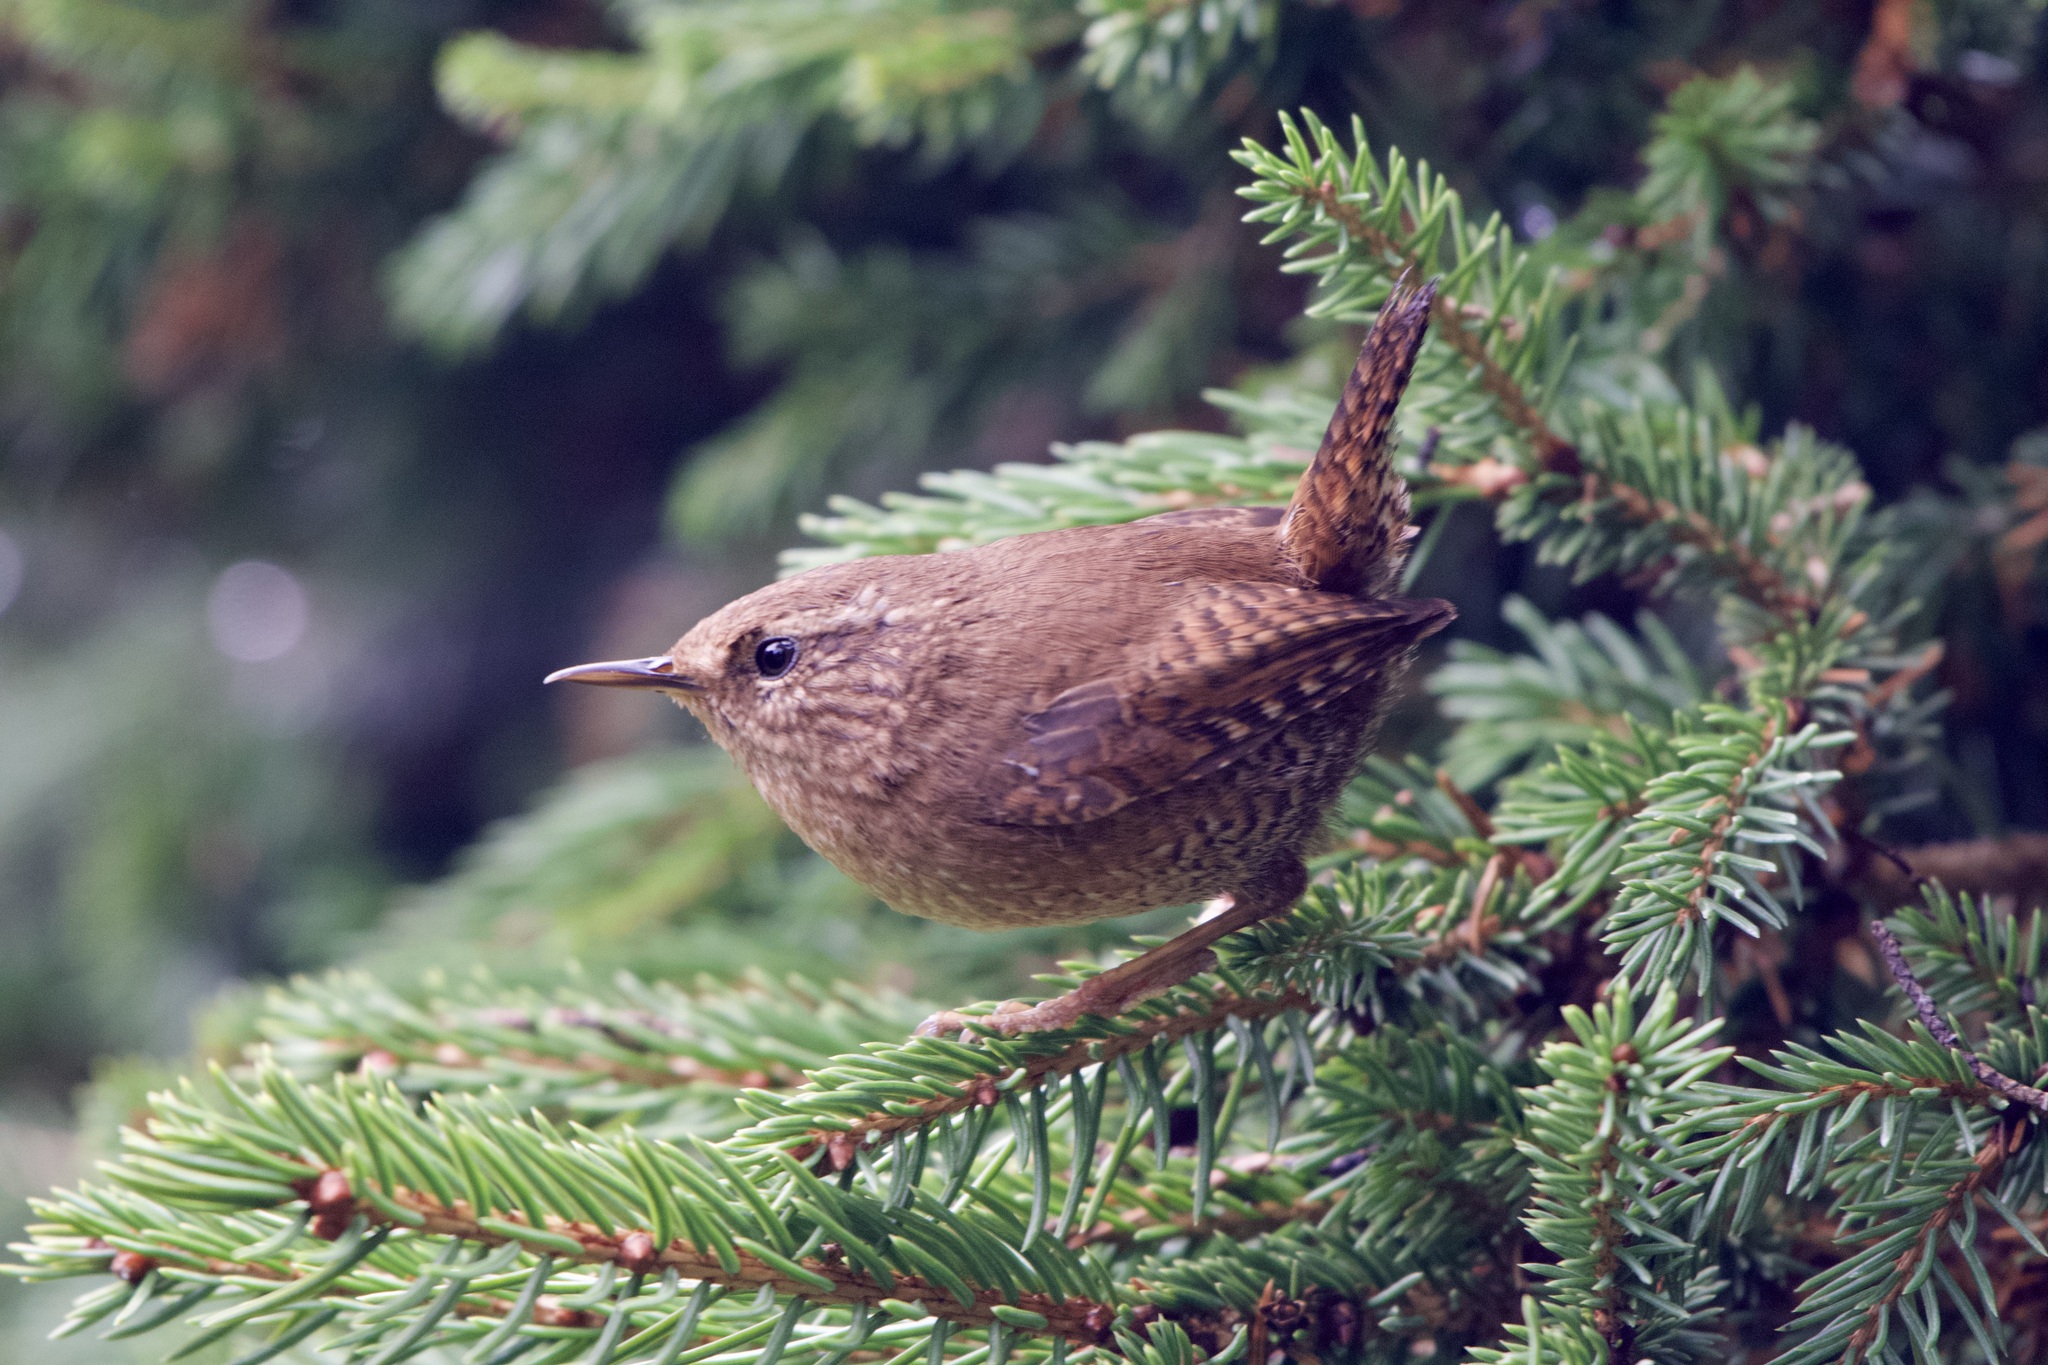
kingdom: Animalia
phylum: Chordata
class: Aves
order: Passeriformes
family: Troglodytidae
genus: Troglodytes
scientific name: Troglodytes pacificus
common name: Pacific wren
